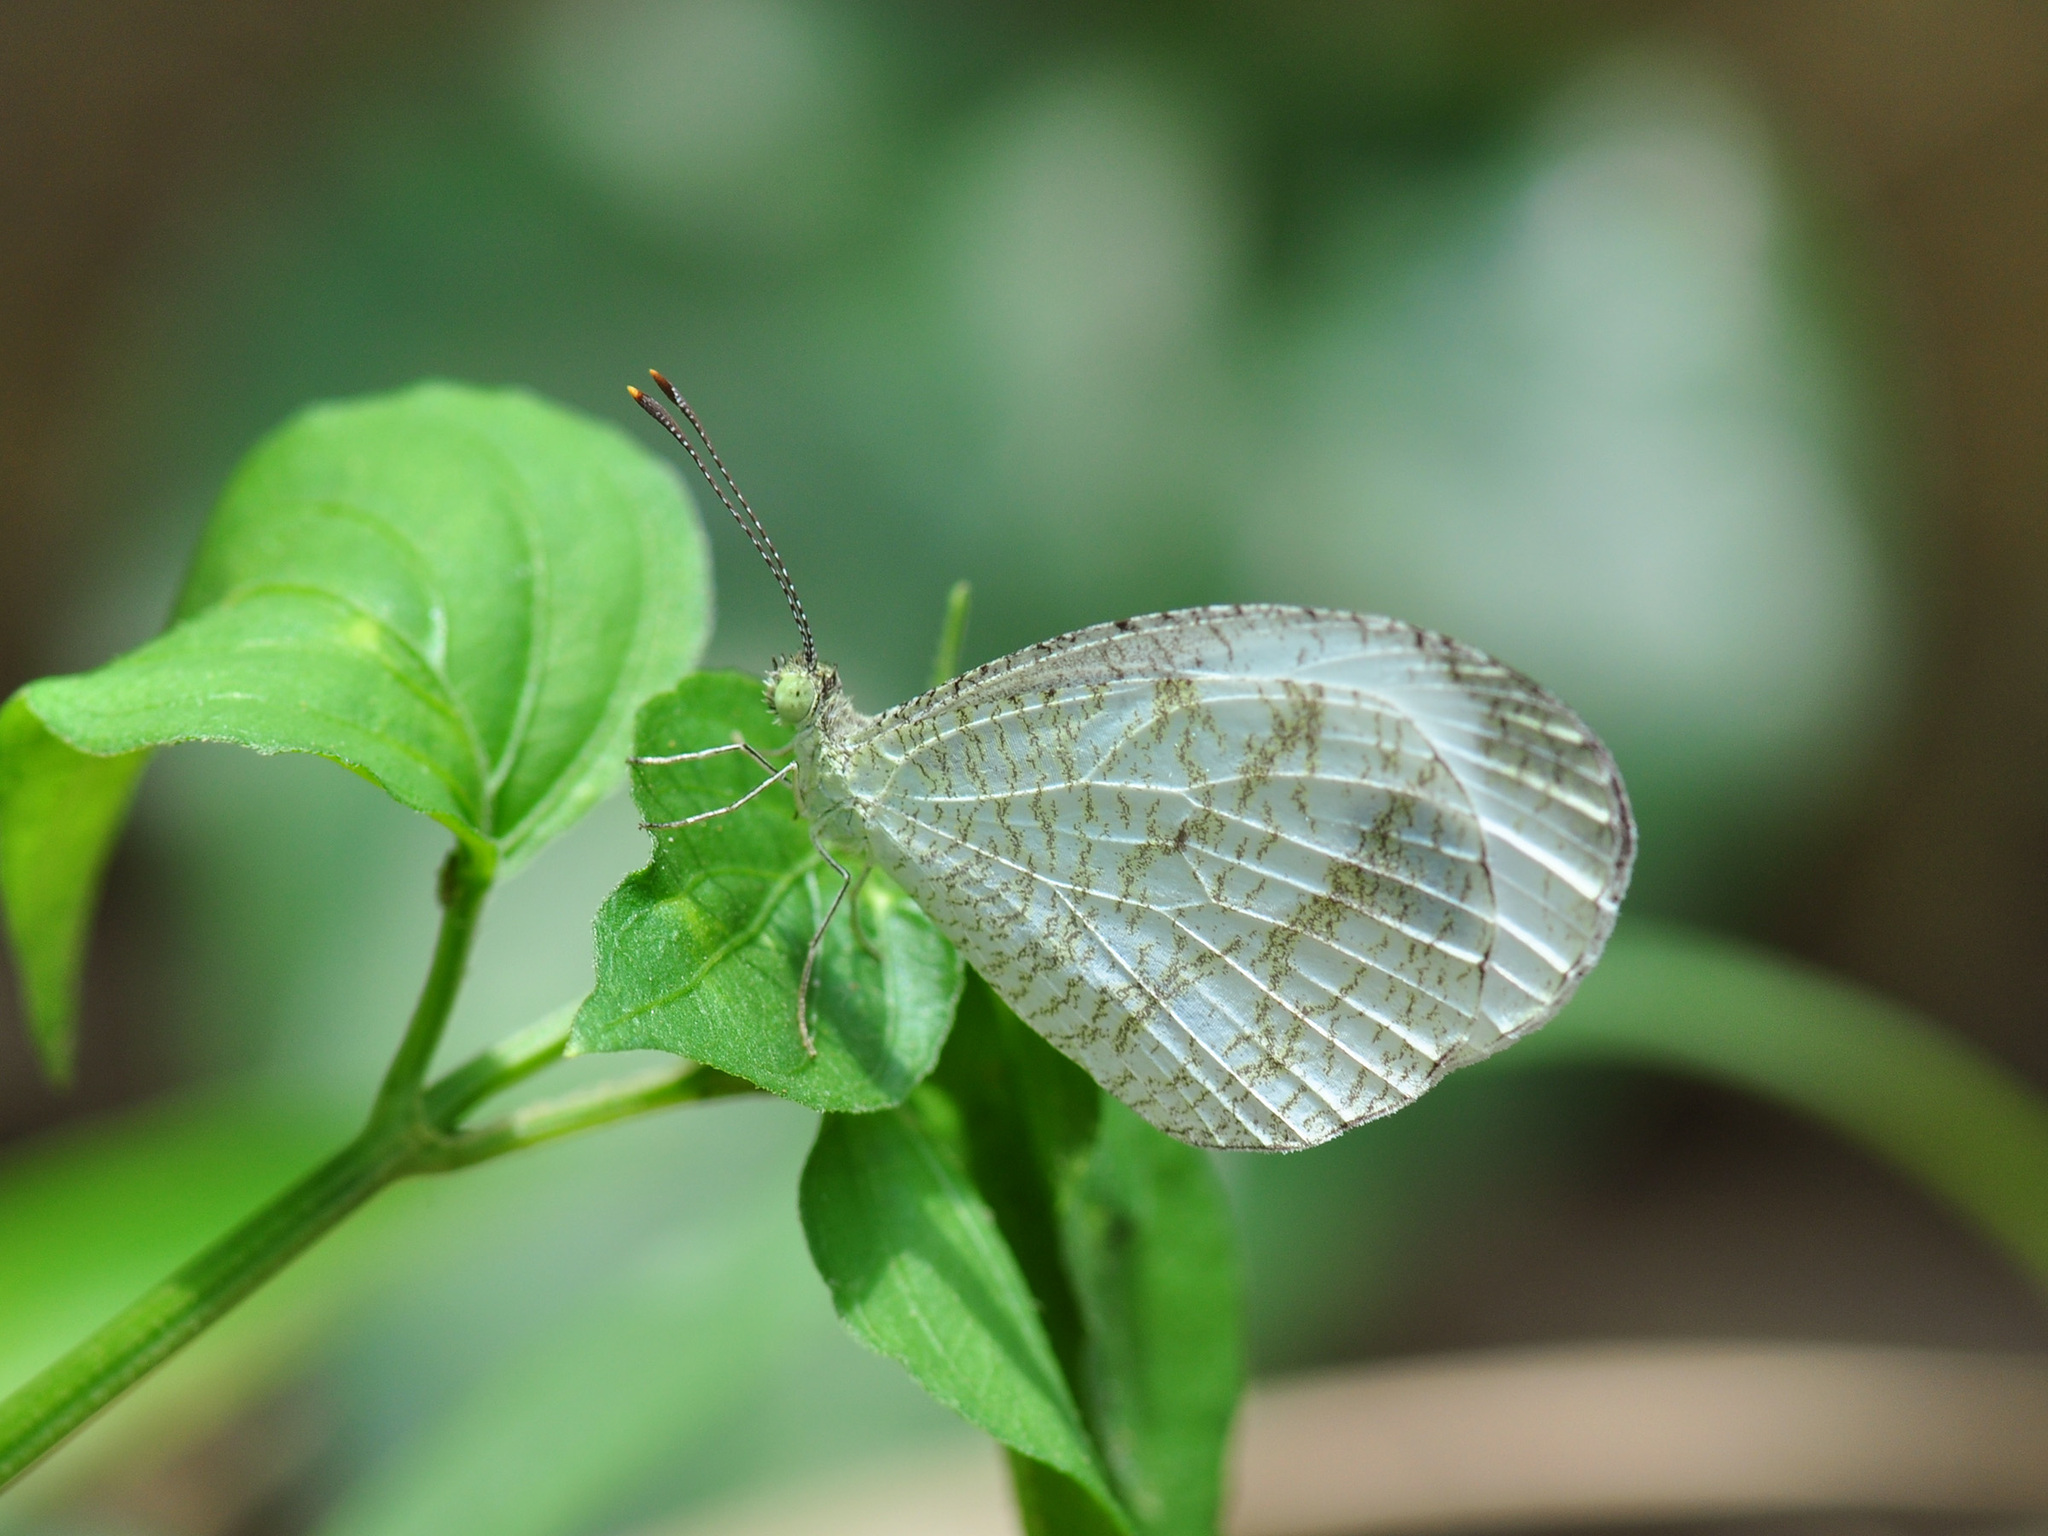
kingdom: Animalia
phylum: Arthropoda
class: Insecta
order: Lepidoptera
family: Pieridae
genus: Leptosia
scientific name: Leptosia nina
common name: Psyche
